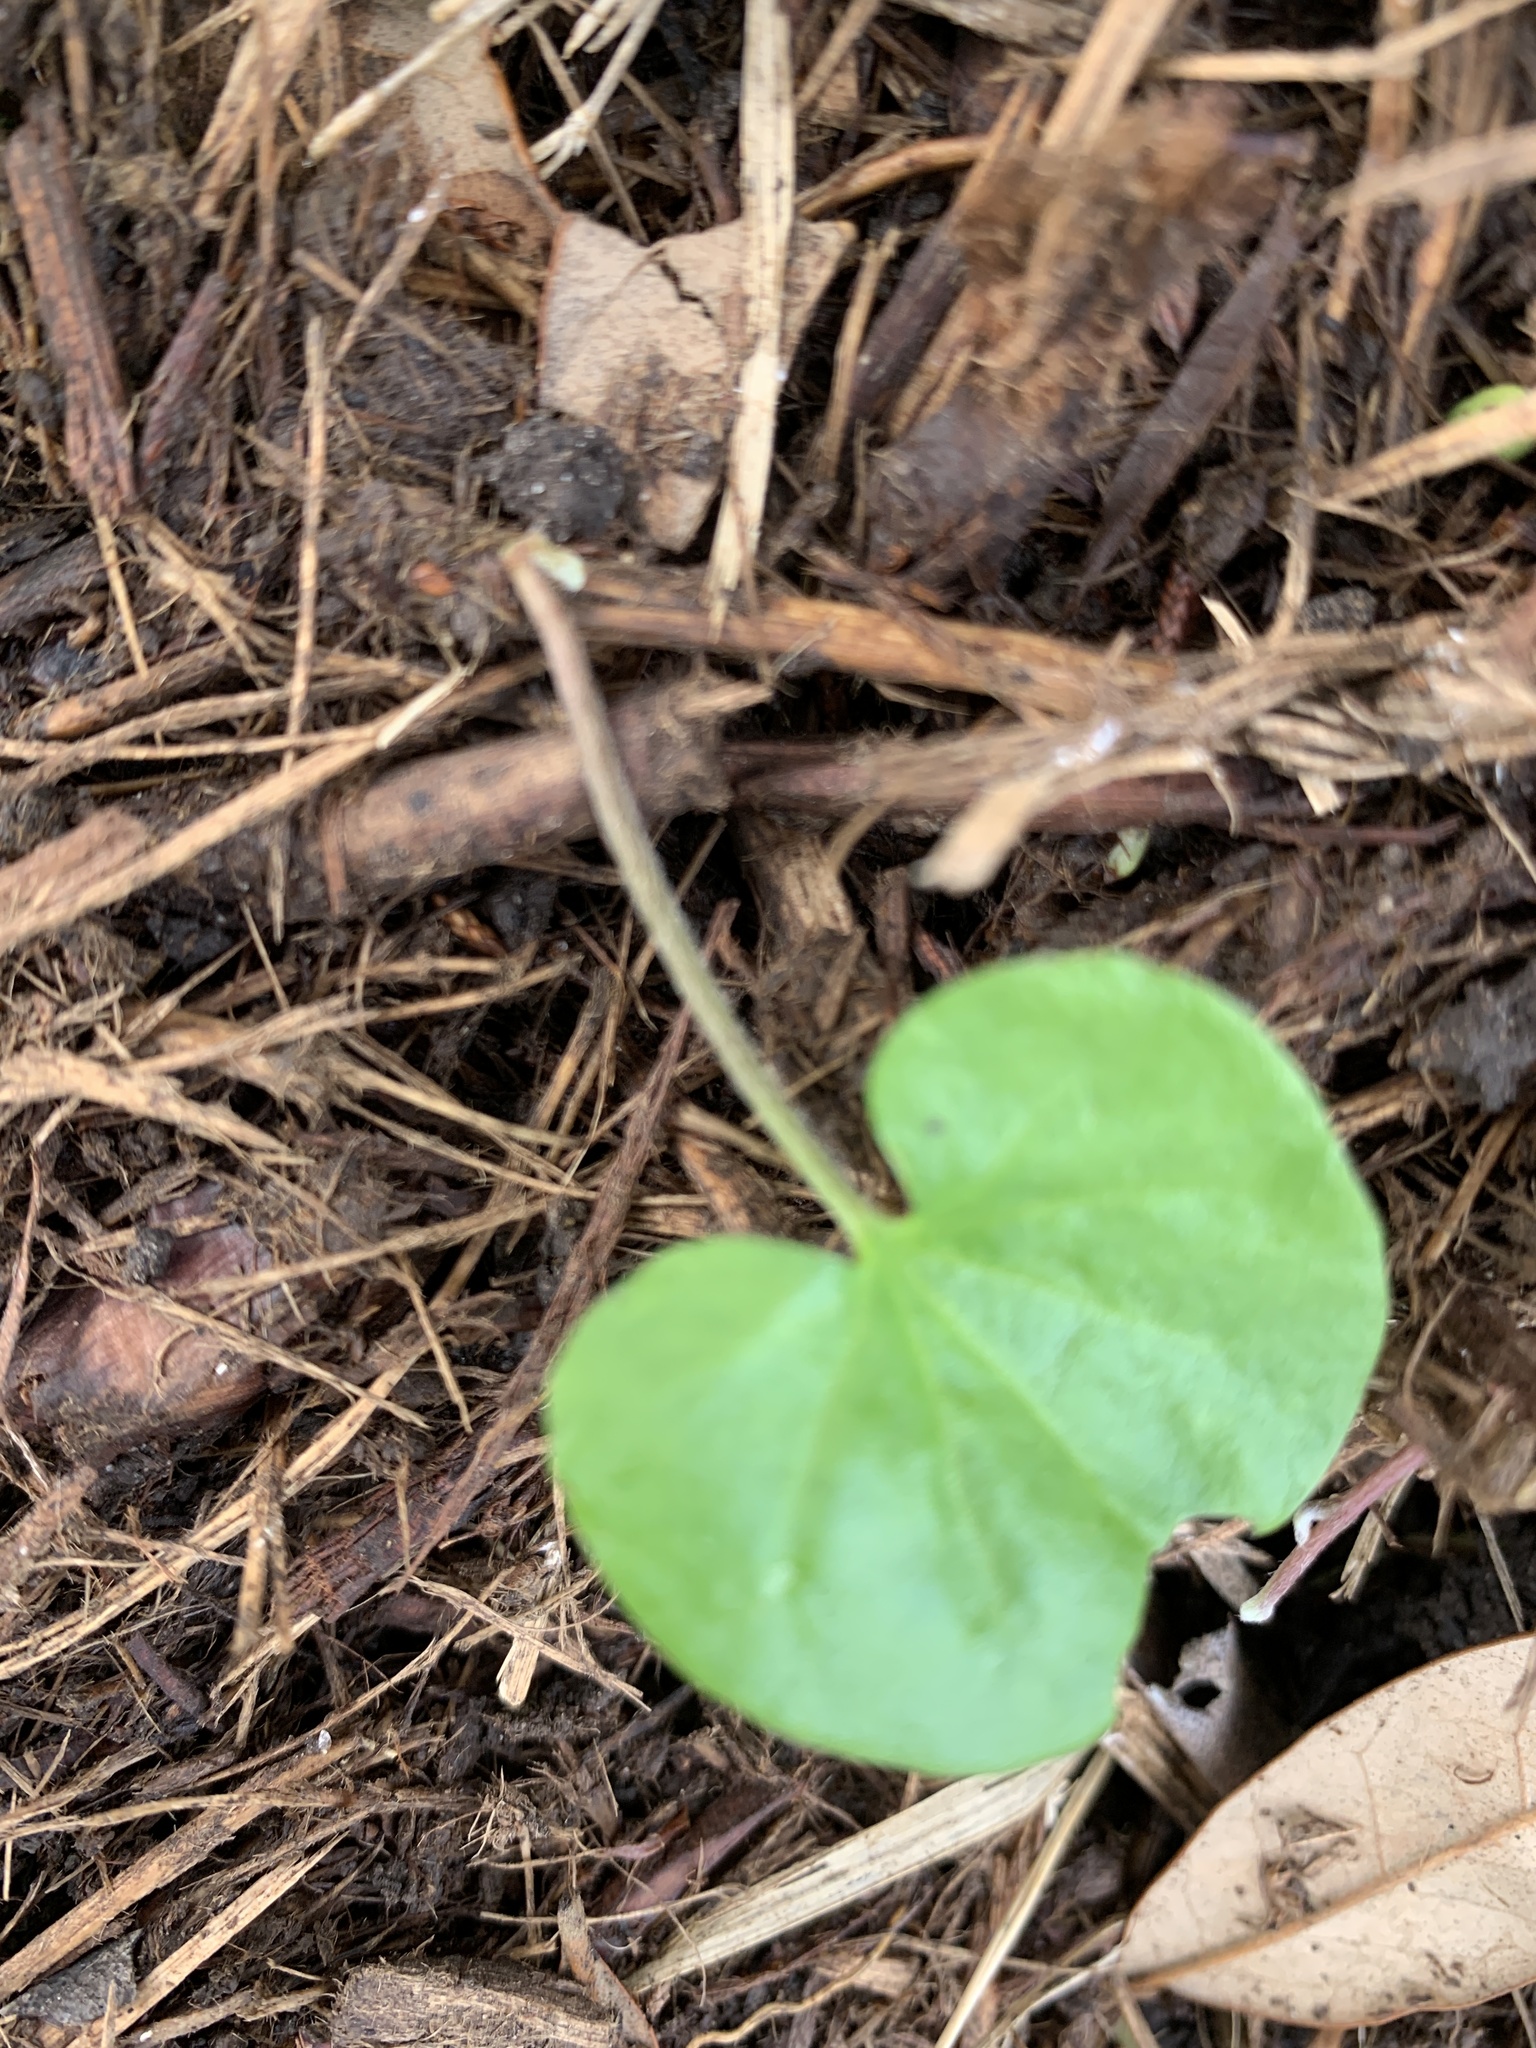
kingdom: Plantae
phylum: Tracheophyta
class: Magnoliopsida
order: Solanales
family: Convolvulaceae
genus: Dichondra
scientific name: Dichondra carolinensis
